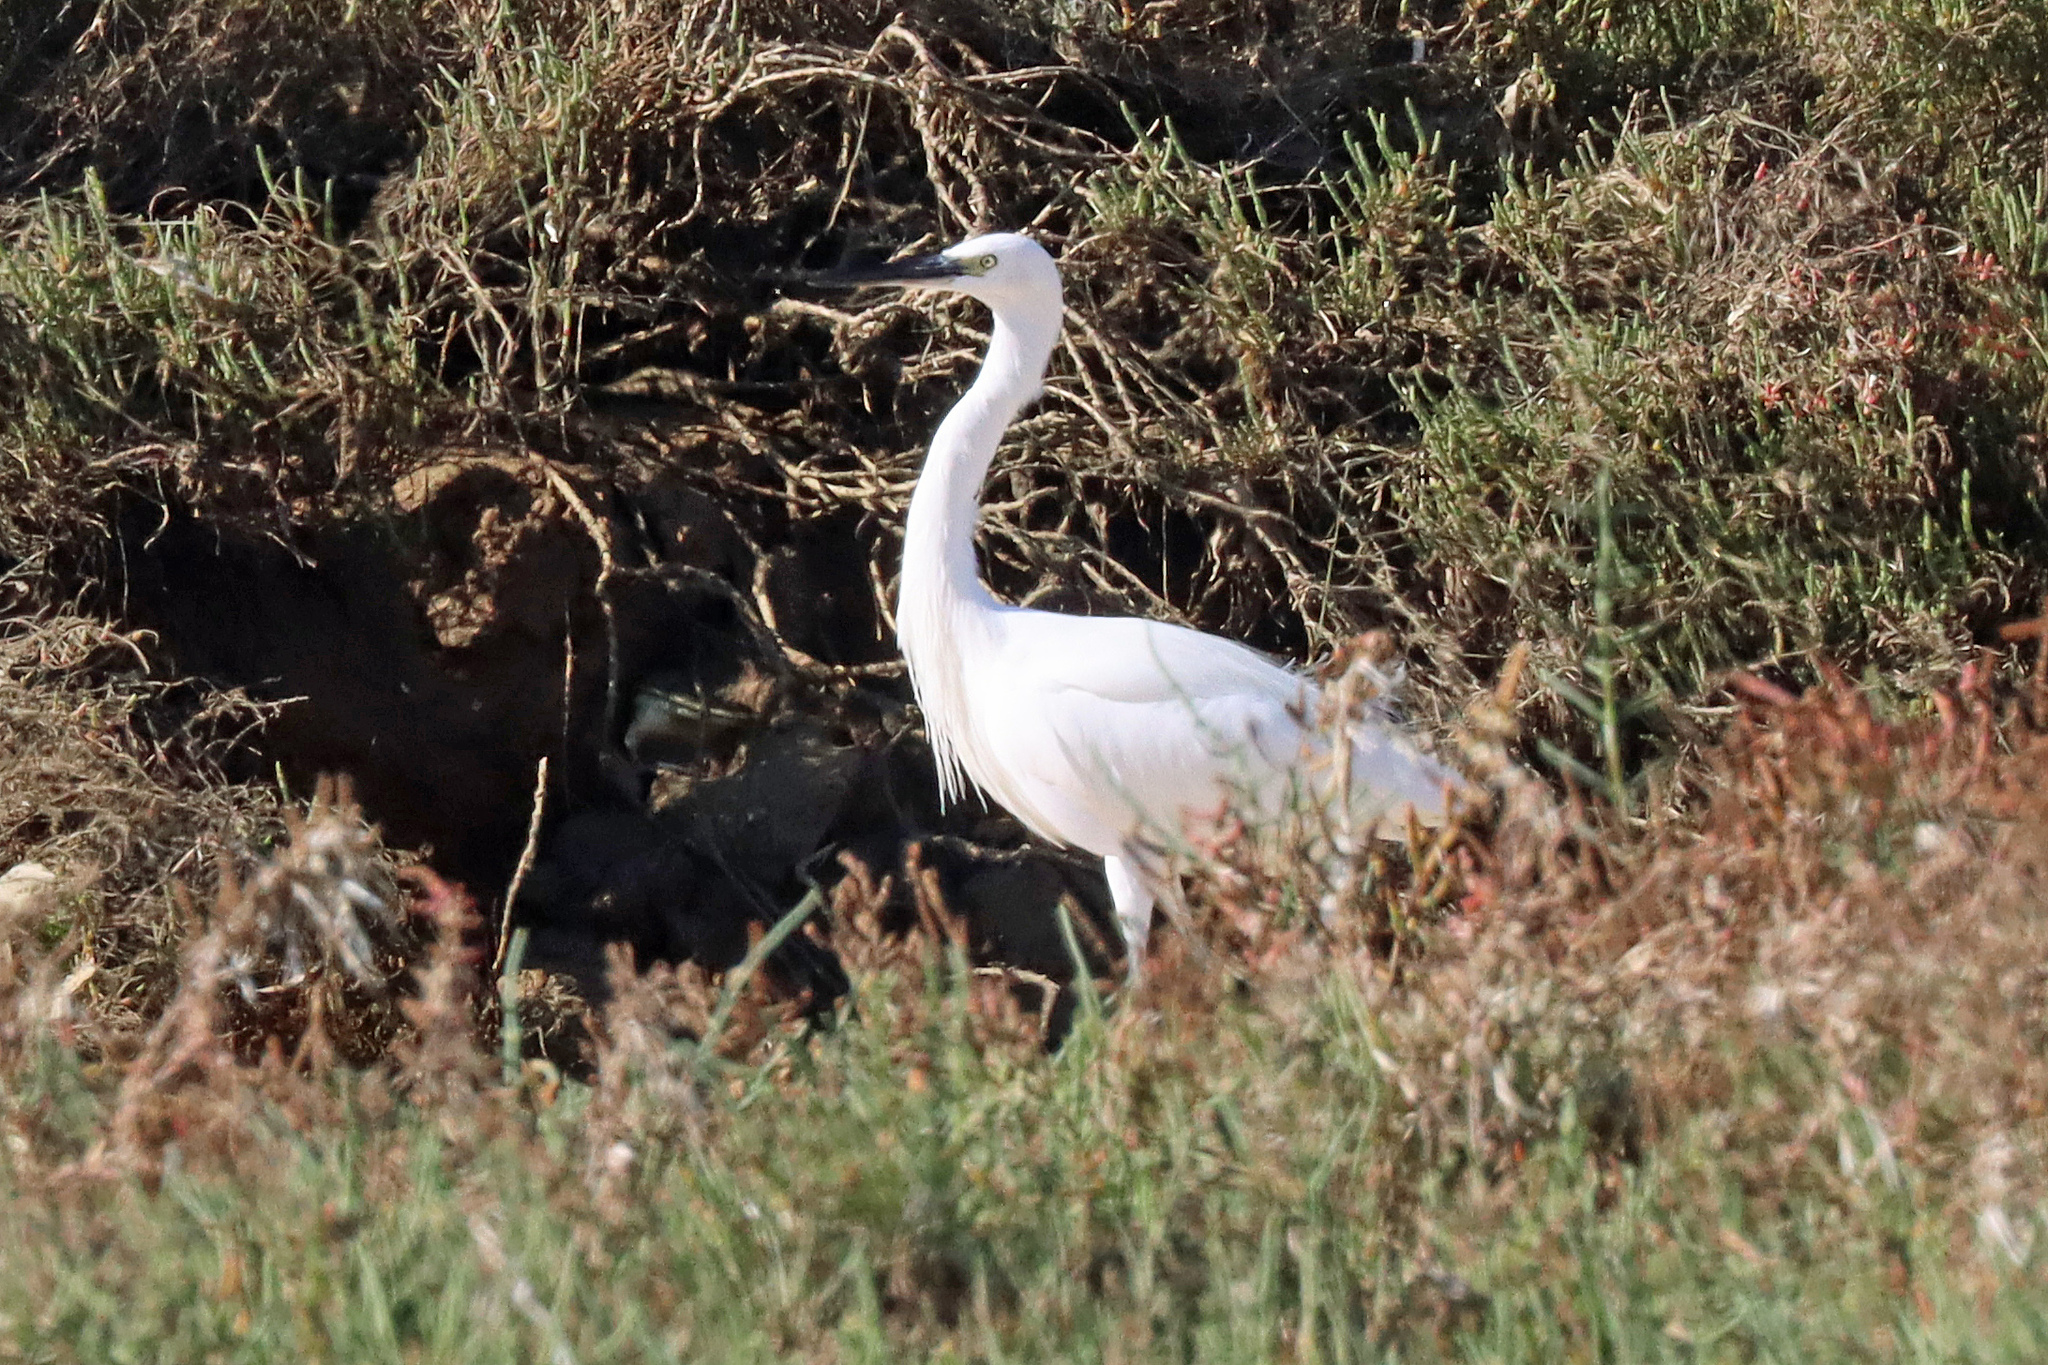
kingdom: Animalia
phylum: Chordata
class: Aves
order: Pelecaniformes
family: Ardeidae
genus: Egretta
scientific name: Egretta garzetta
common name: Little egret
